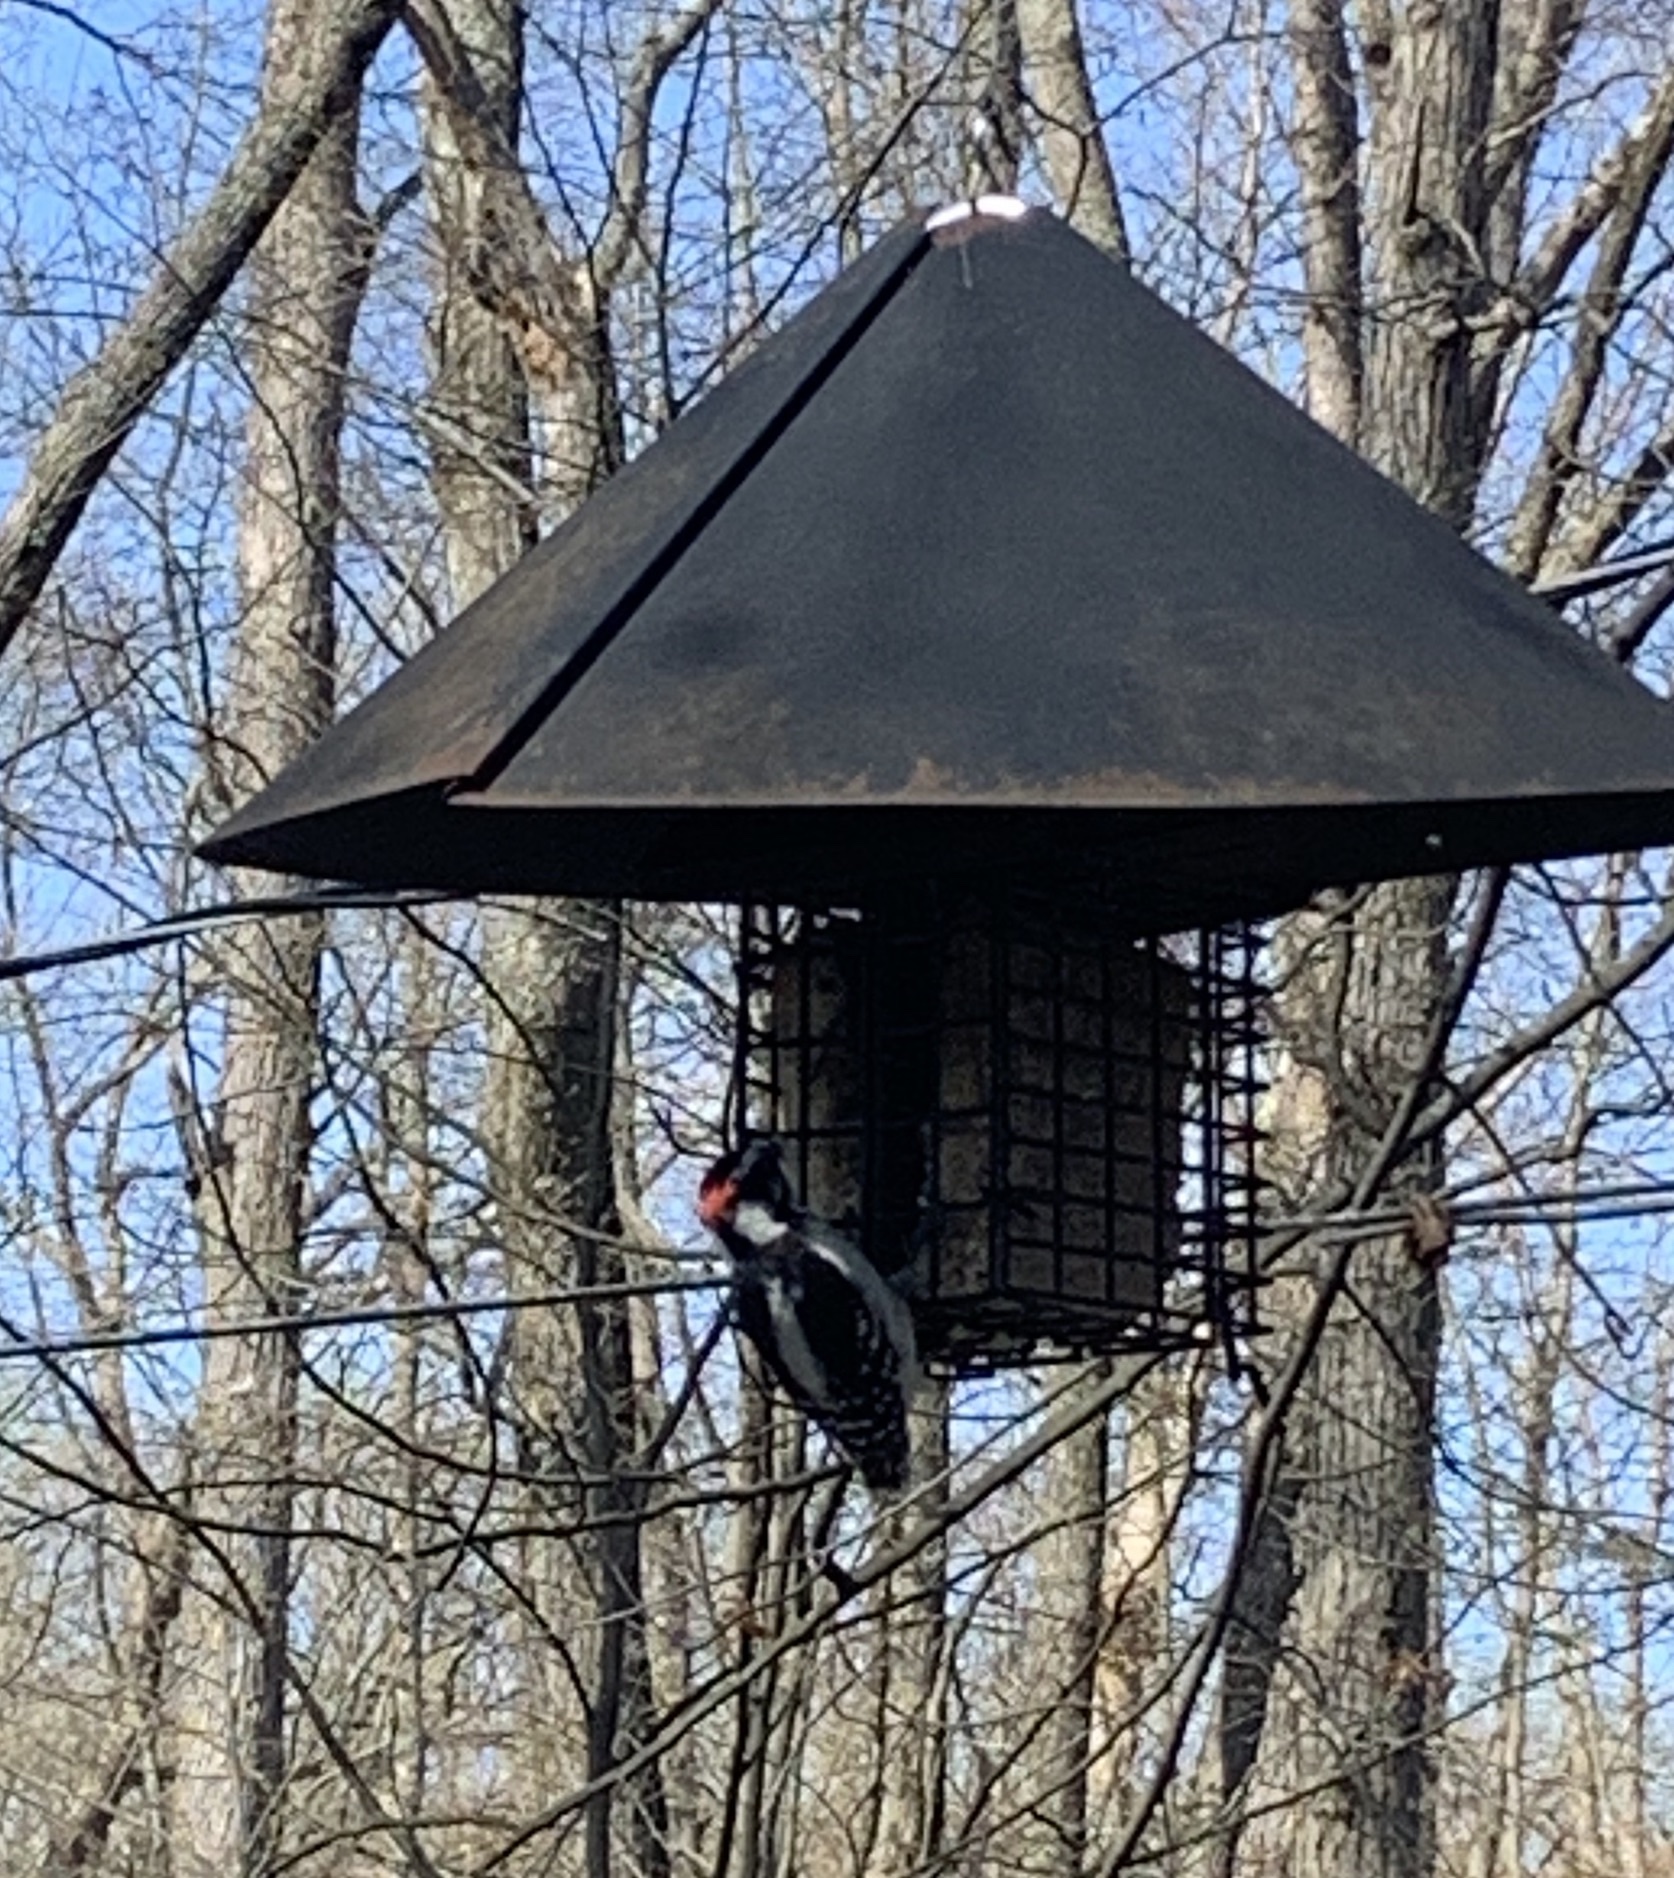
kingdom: Animalia
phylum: Chordata
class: Aves
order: Piciformes
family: Picidae
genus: Dryobates
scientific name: Dryobates pubescens
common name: Downy woodpecker
